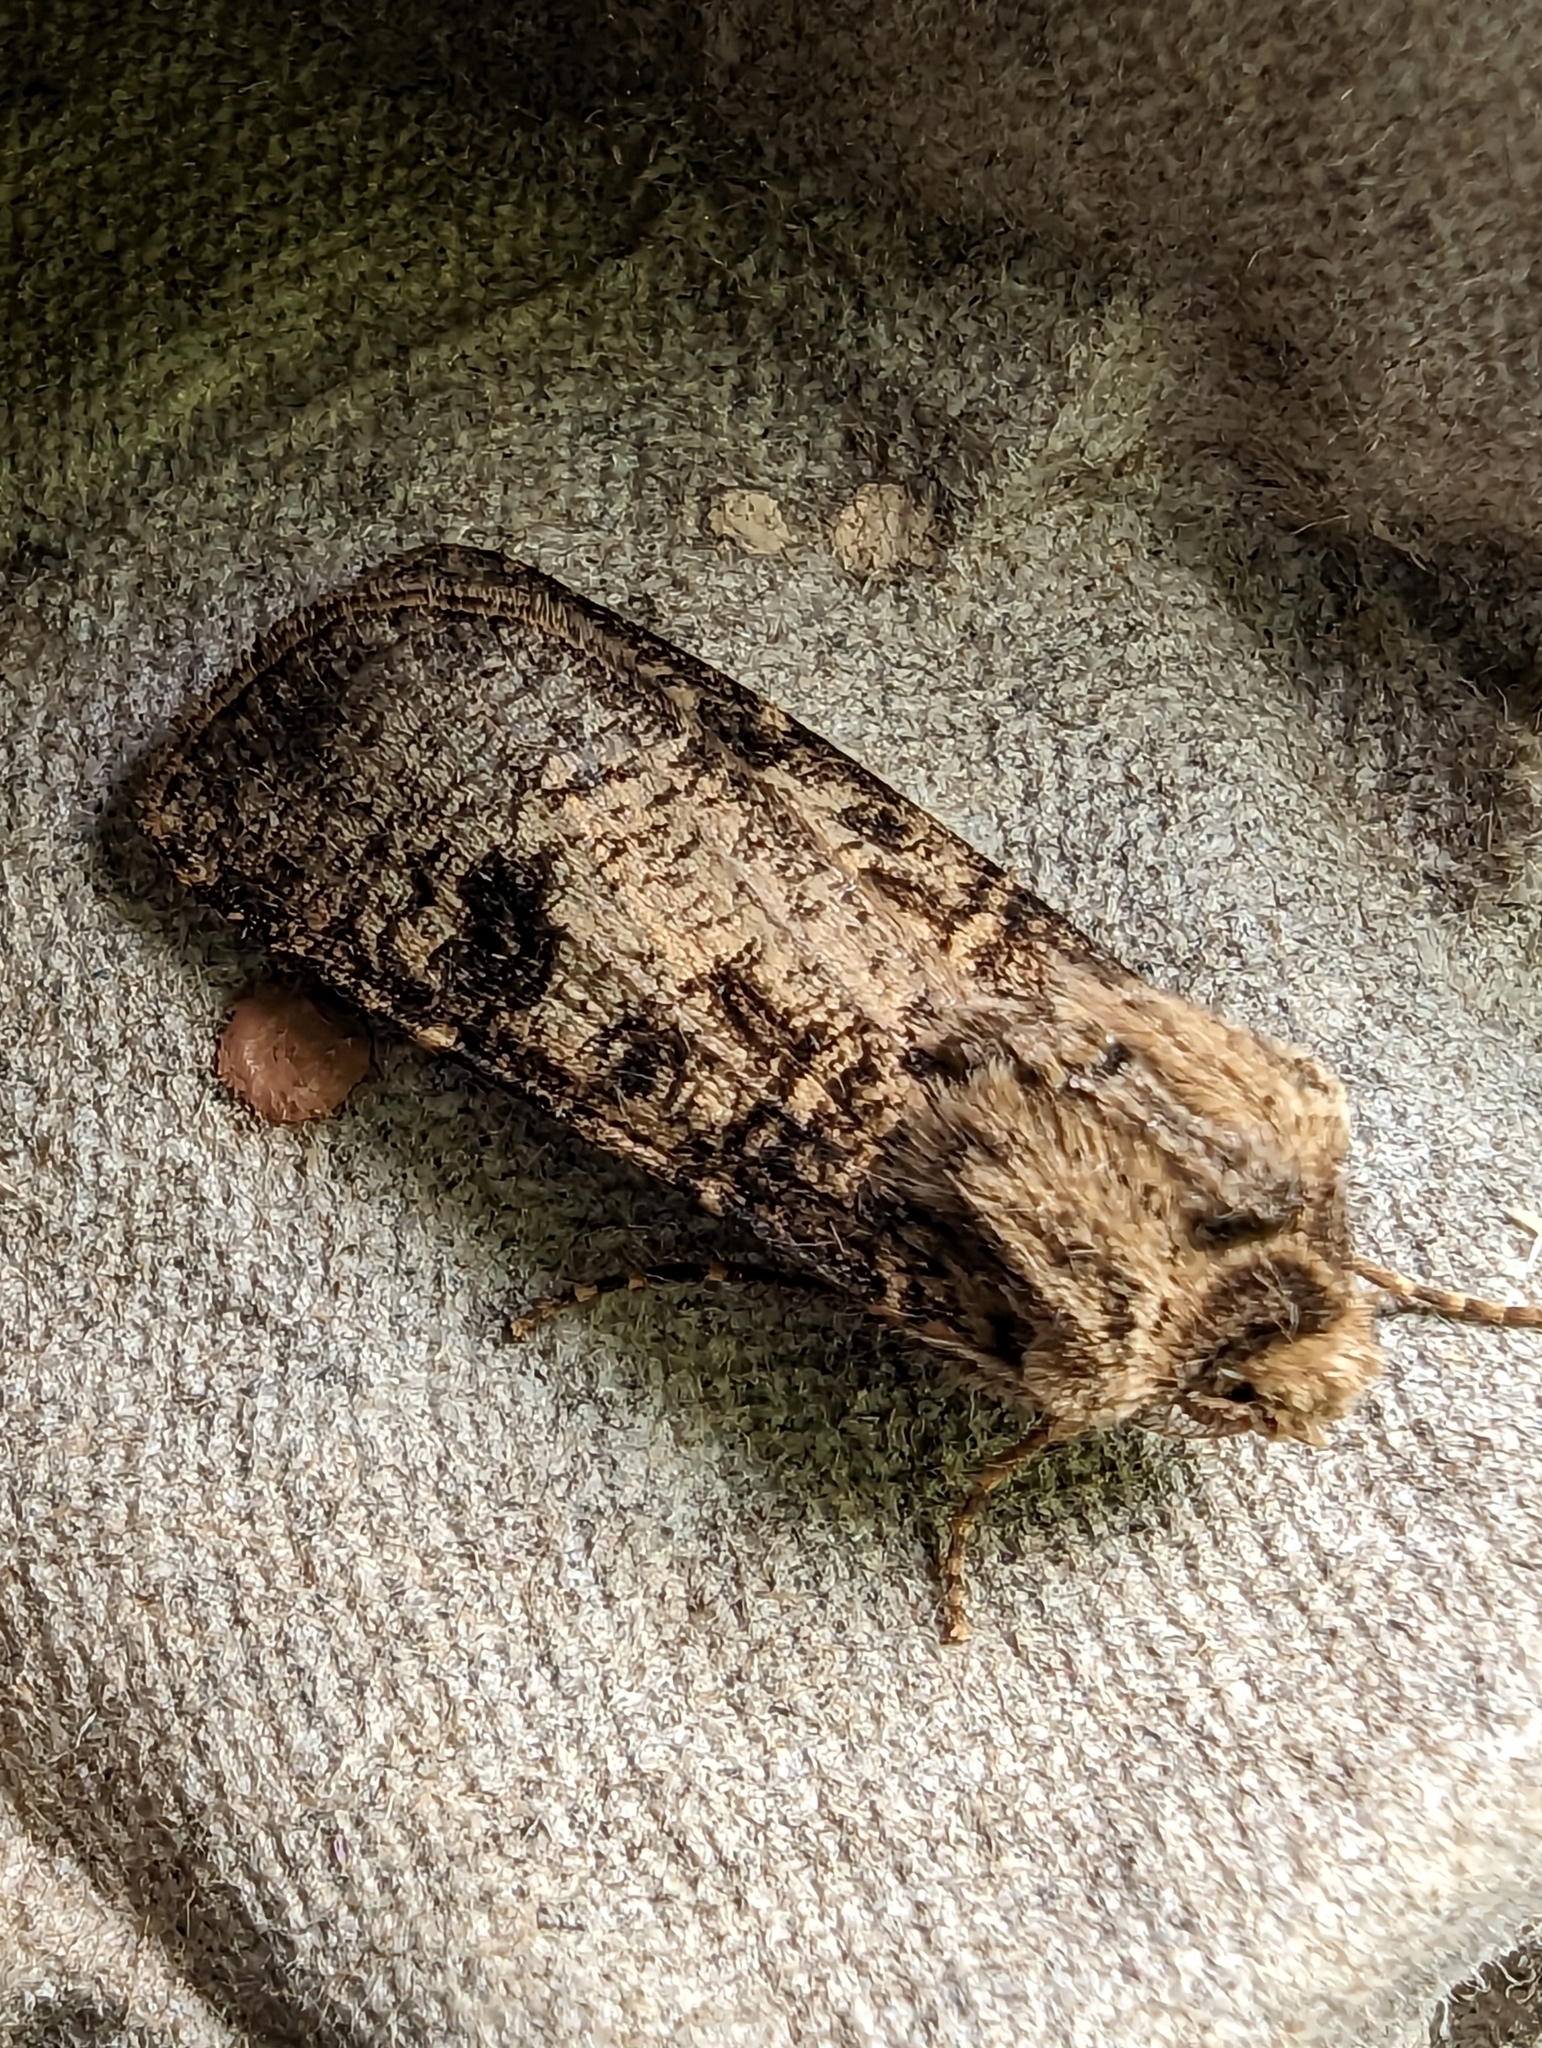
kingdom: Animalia
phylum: Arthropoda
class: Insecta
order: Lepidoptera
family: Noctuidae
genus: Agrotis
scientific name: Agrotis clavis
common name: Heart and club
